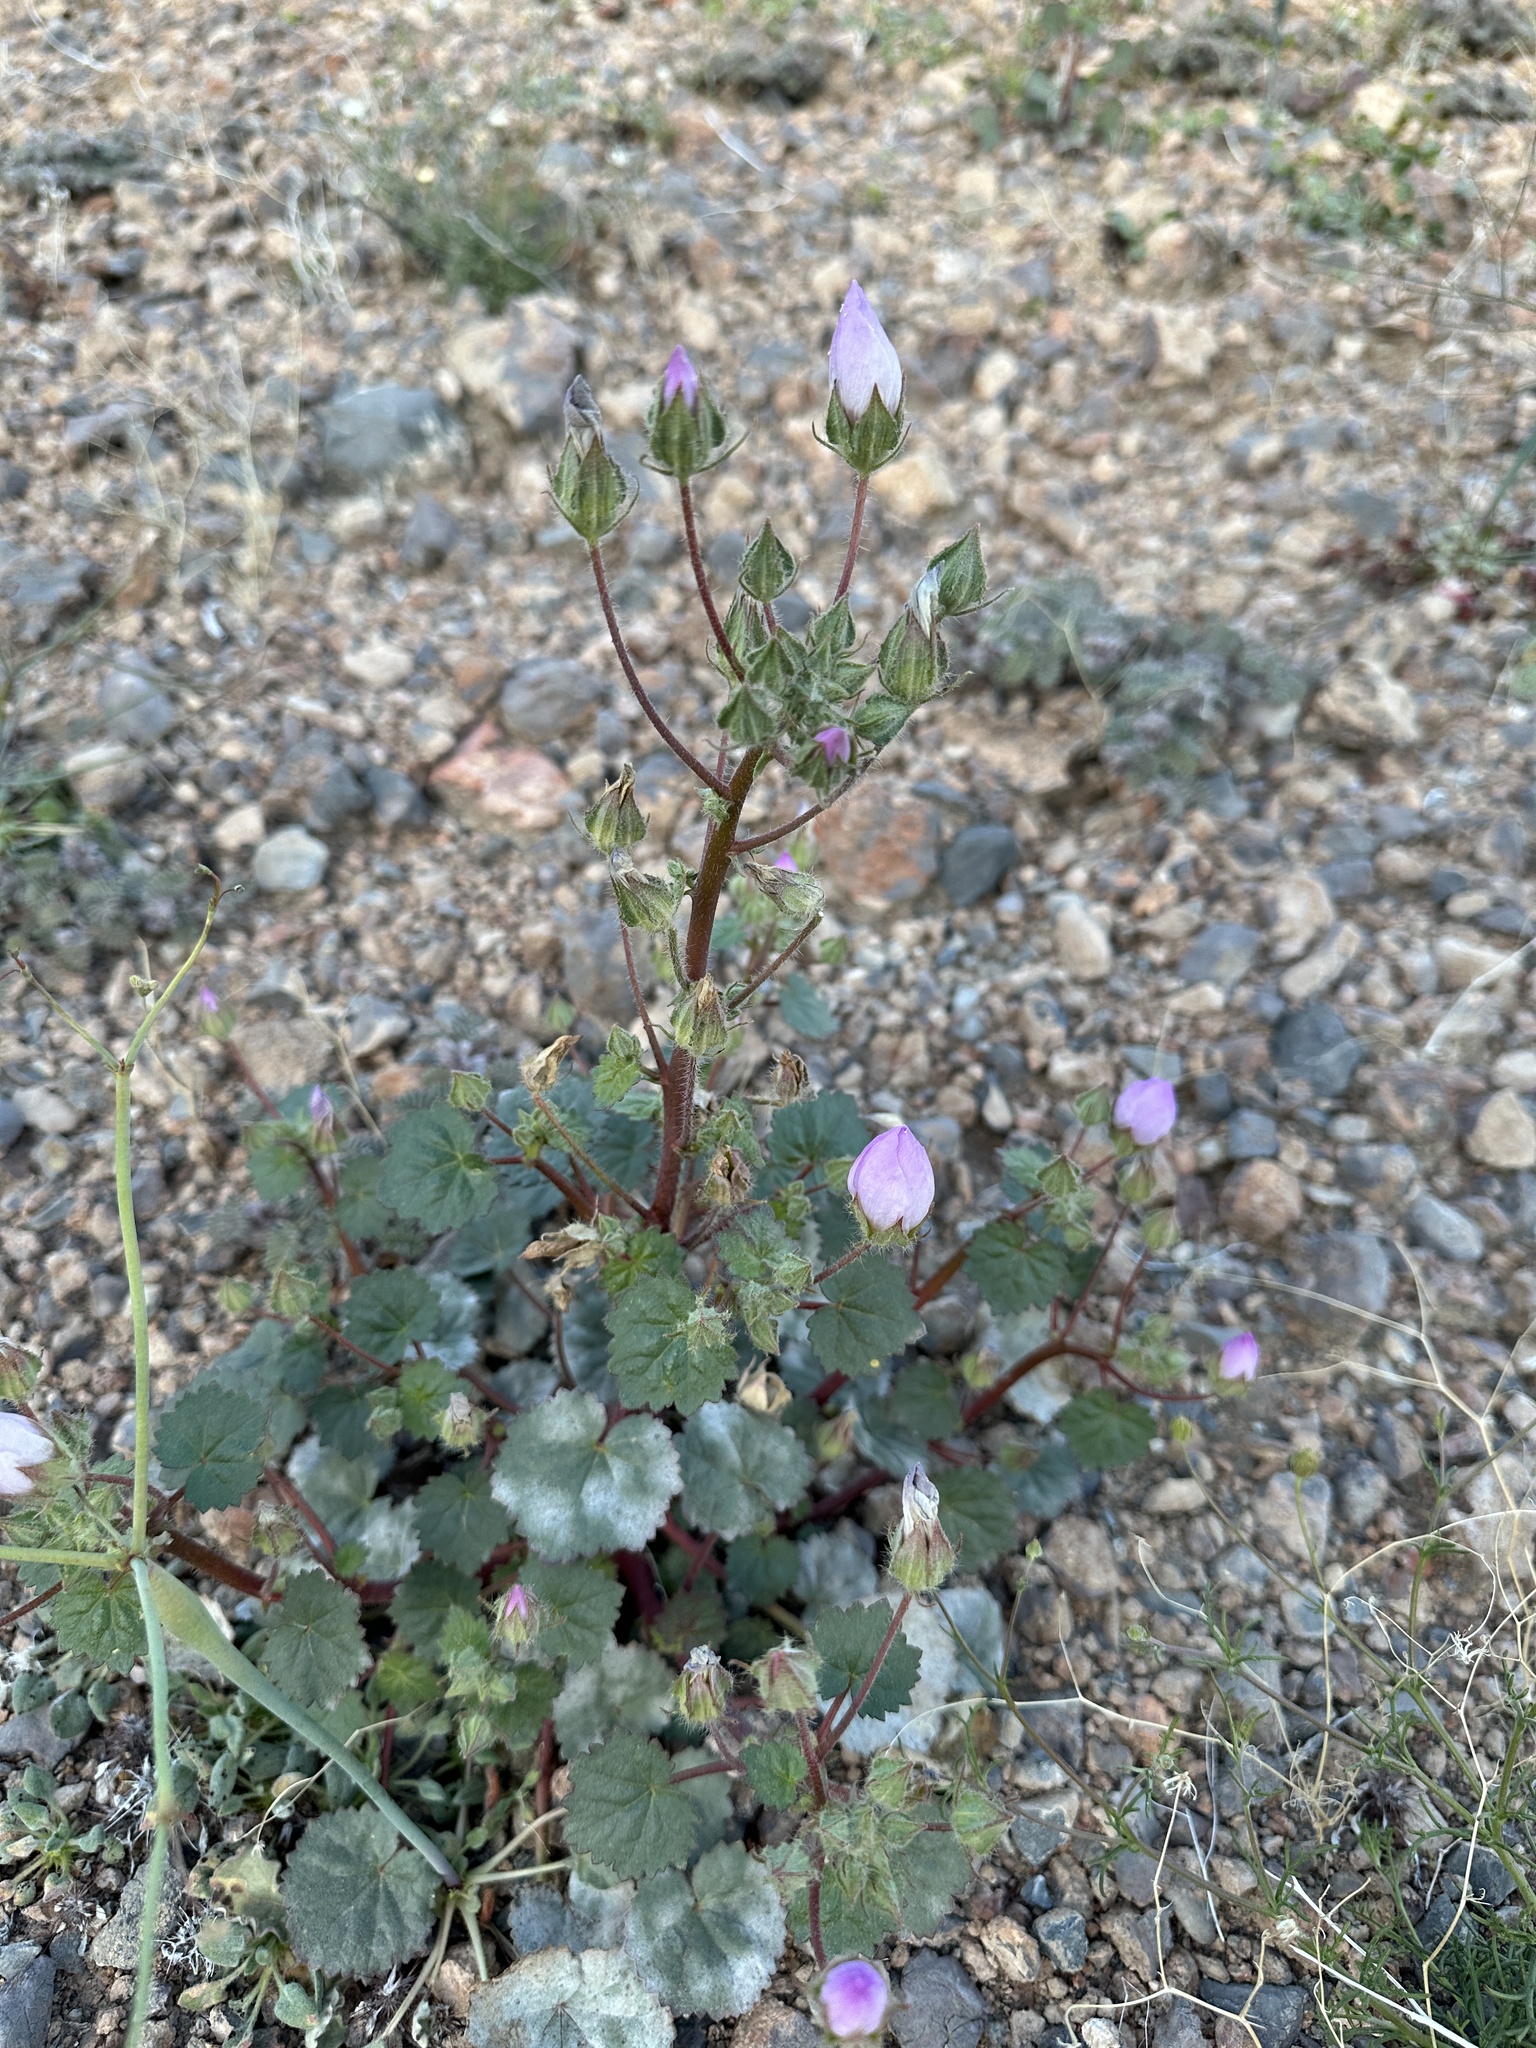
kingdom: Plantae
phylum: Tracheophyta
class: Magnoliopsida
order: Malvales
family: Malvaceae
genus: Eremalche
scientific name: Eremalche rotundifolia
